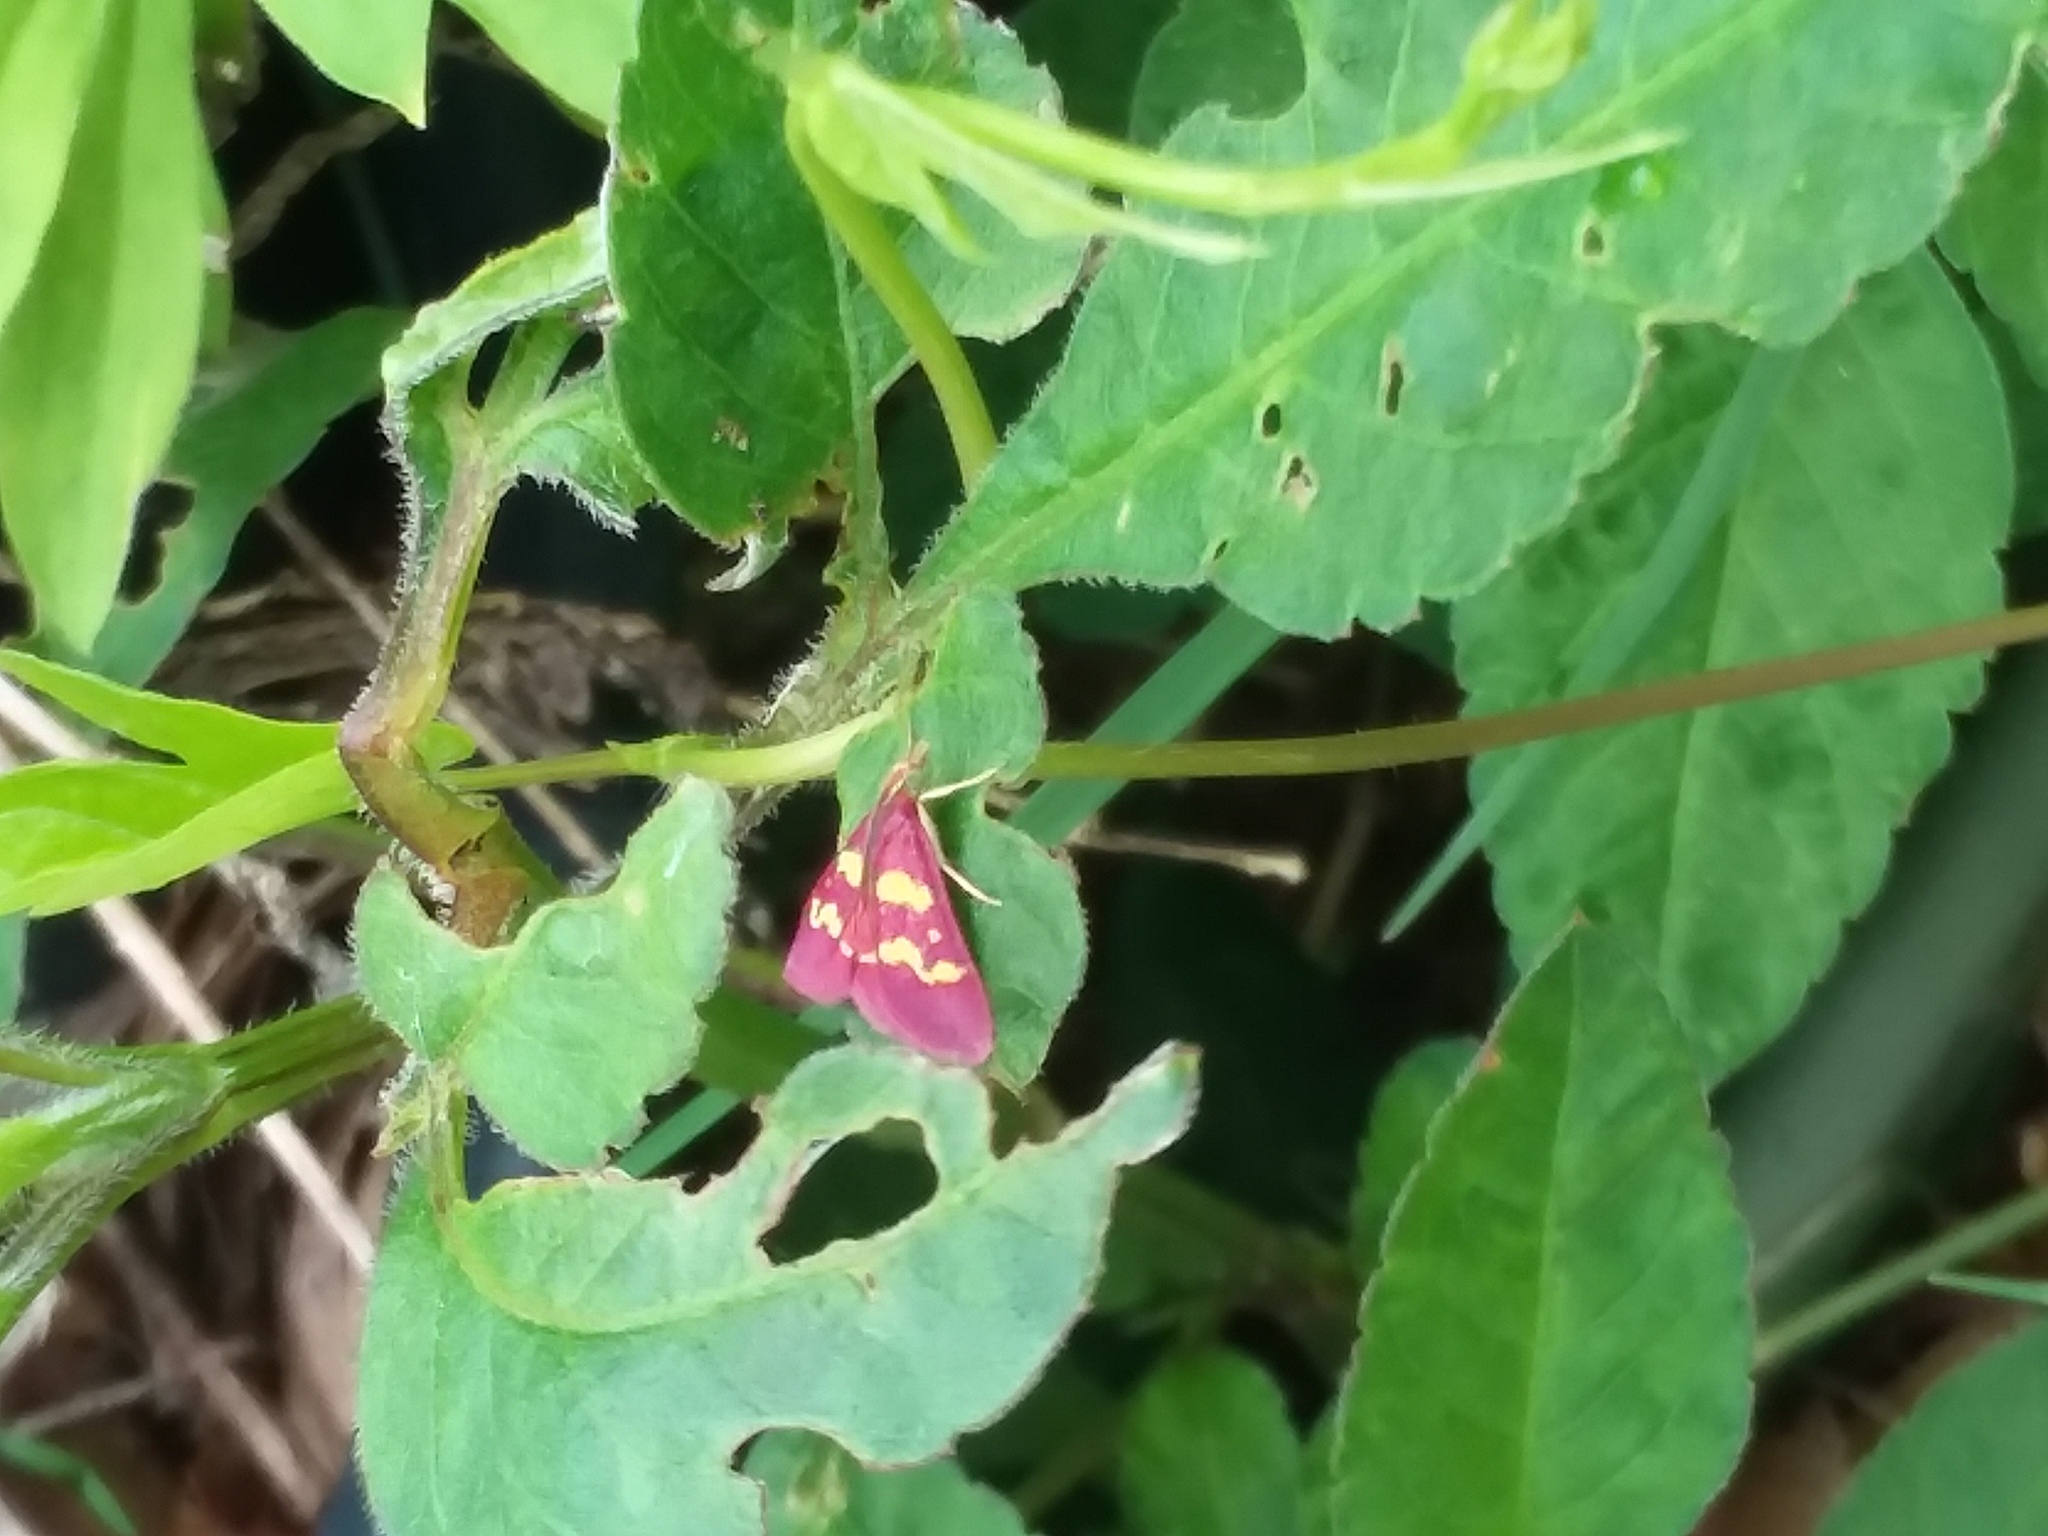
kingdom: Animalia
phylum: Arthropoda
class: Insecta
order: Lepidoptera
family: Crambidae
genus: Pyrausta
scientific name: Pyrausta tyralis
